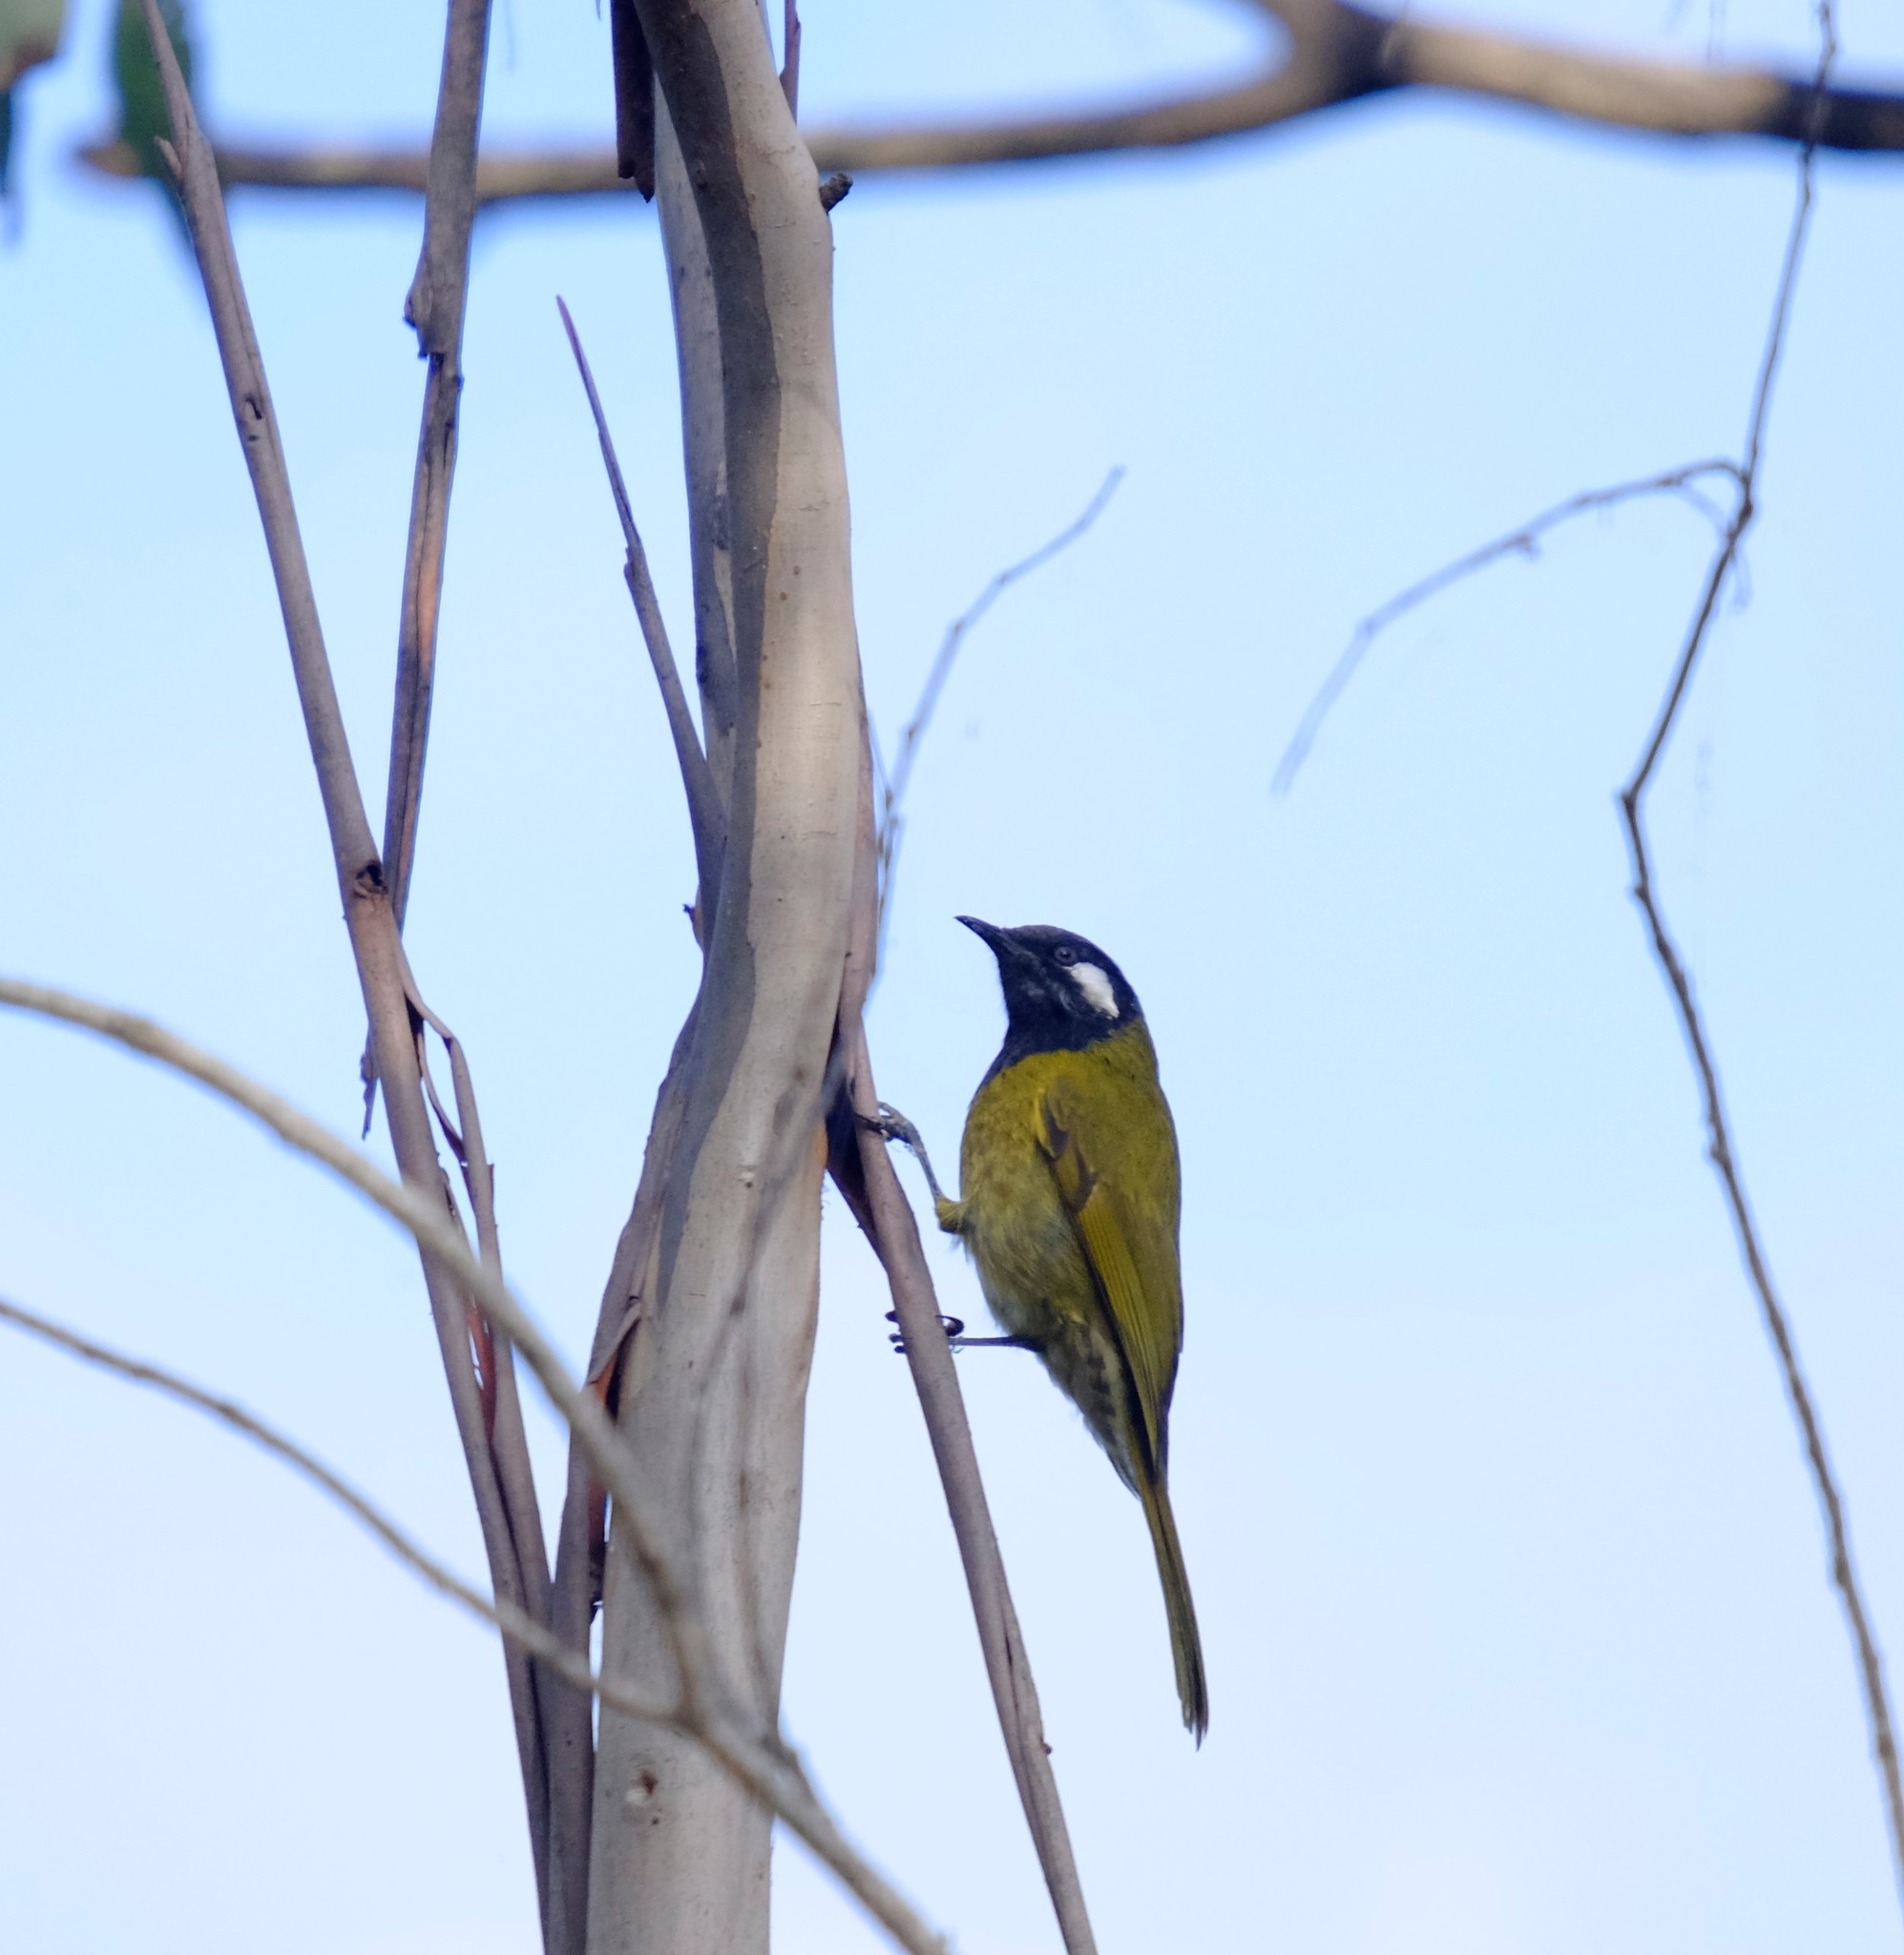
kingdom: Animalia
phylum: Chordata
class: Aves
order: Passeriformes
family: Meliphagidae
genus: Nesoptilotis
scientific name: Nesoptilotis leucotis
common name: White-eared honeyeater
